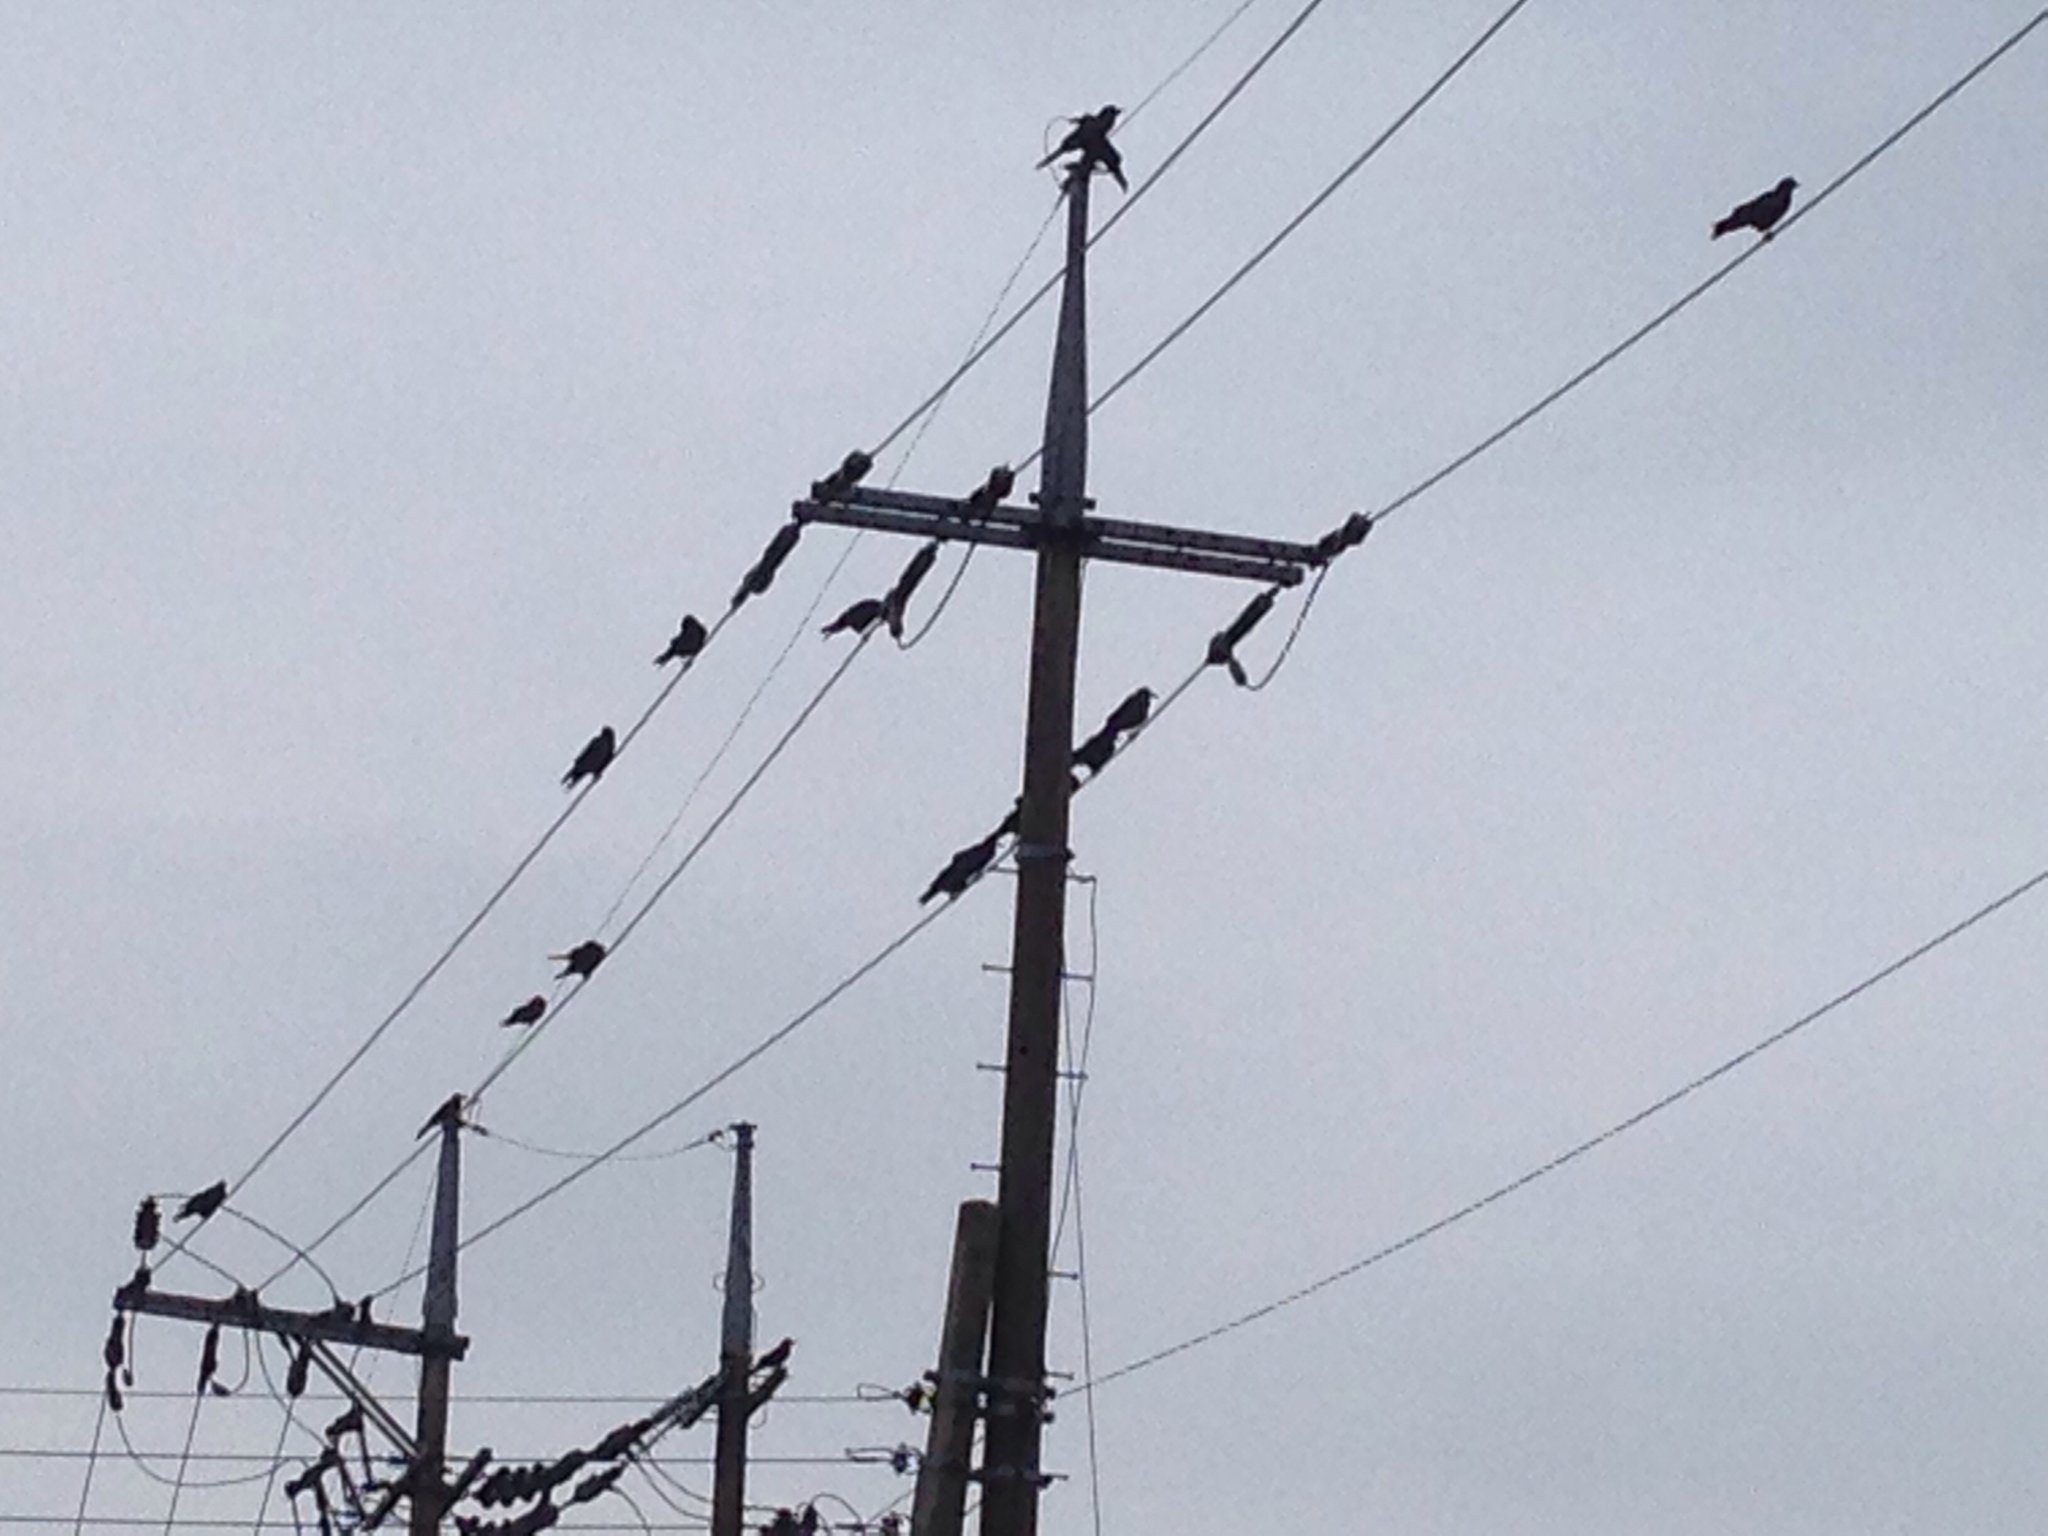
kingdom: Animalia
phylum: Chordata
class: Aves
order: Passeriformes
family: Corvidae
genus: Corvus
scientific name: Corvus macrorhynchos
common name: Large-billed crow
